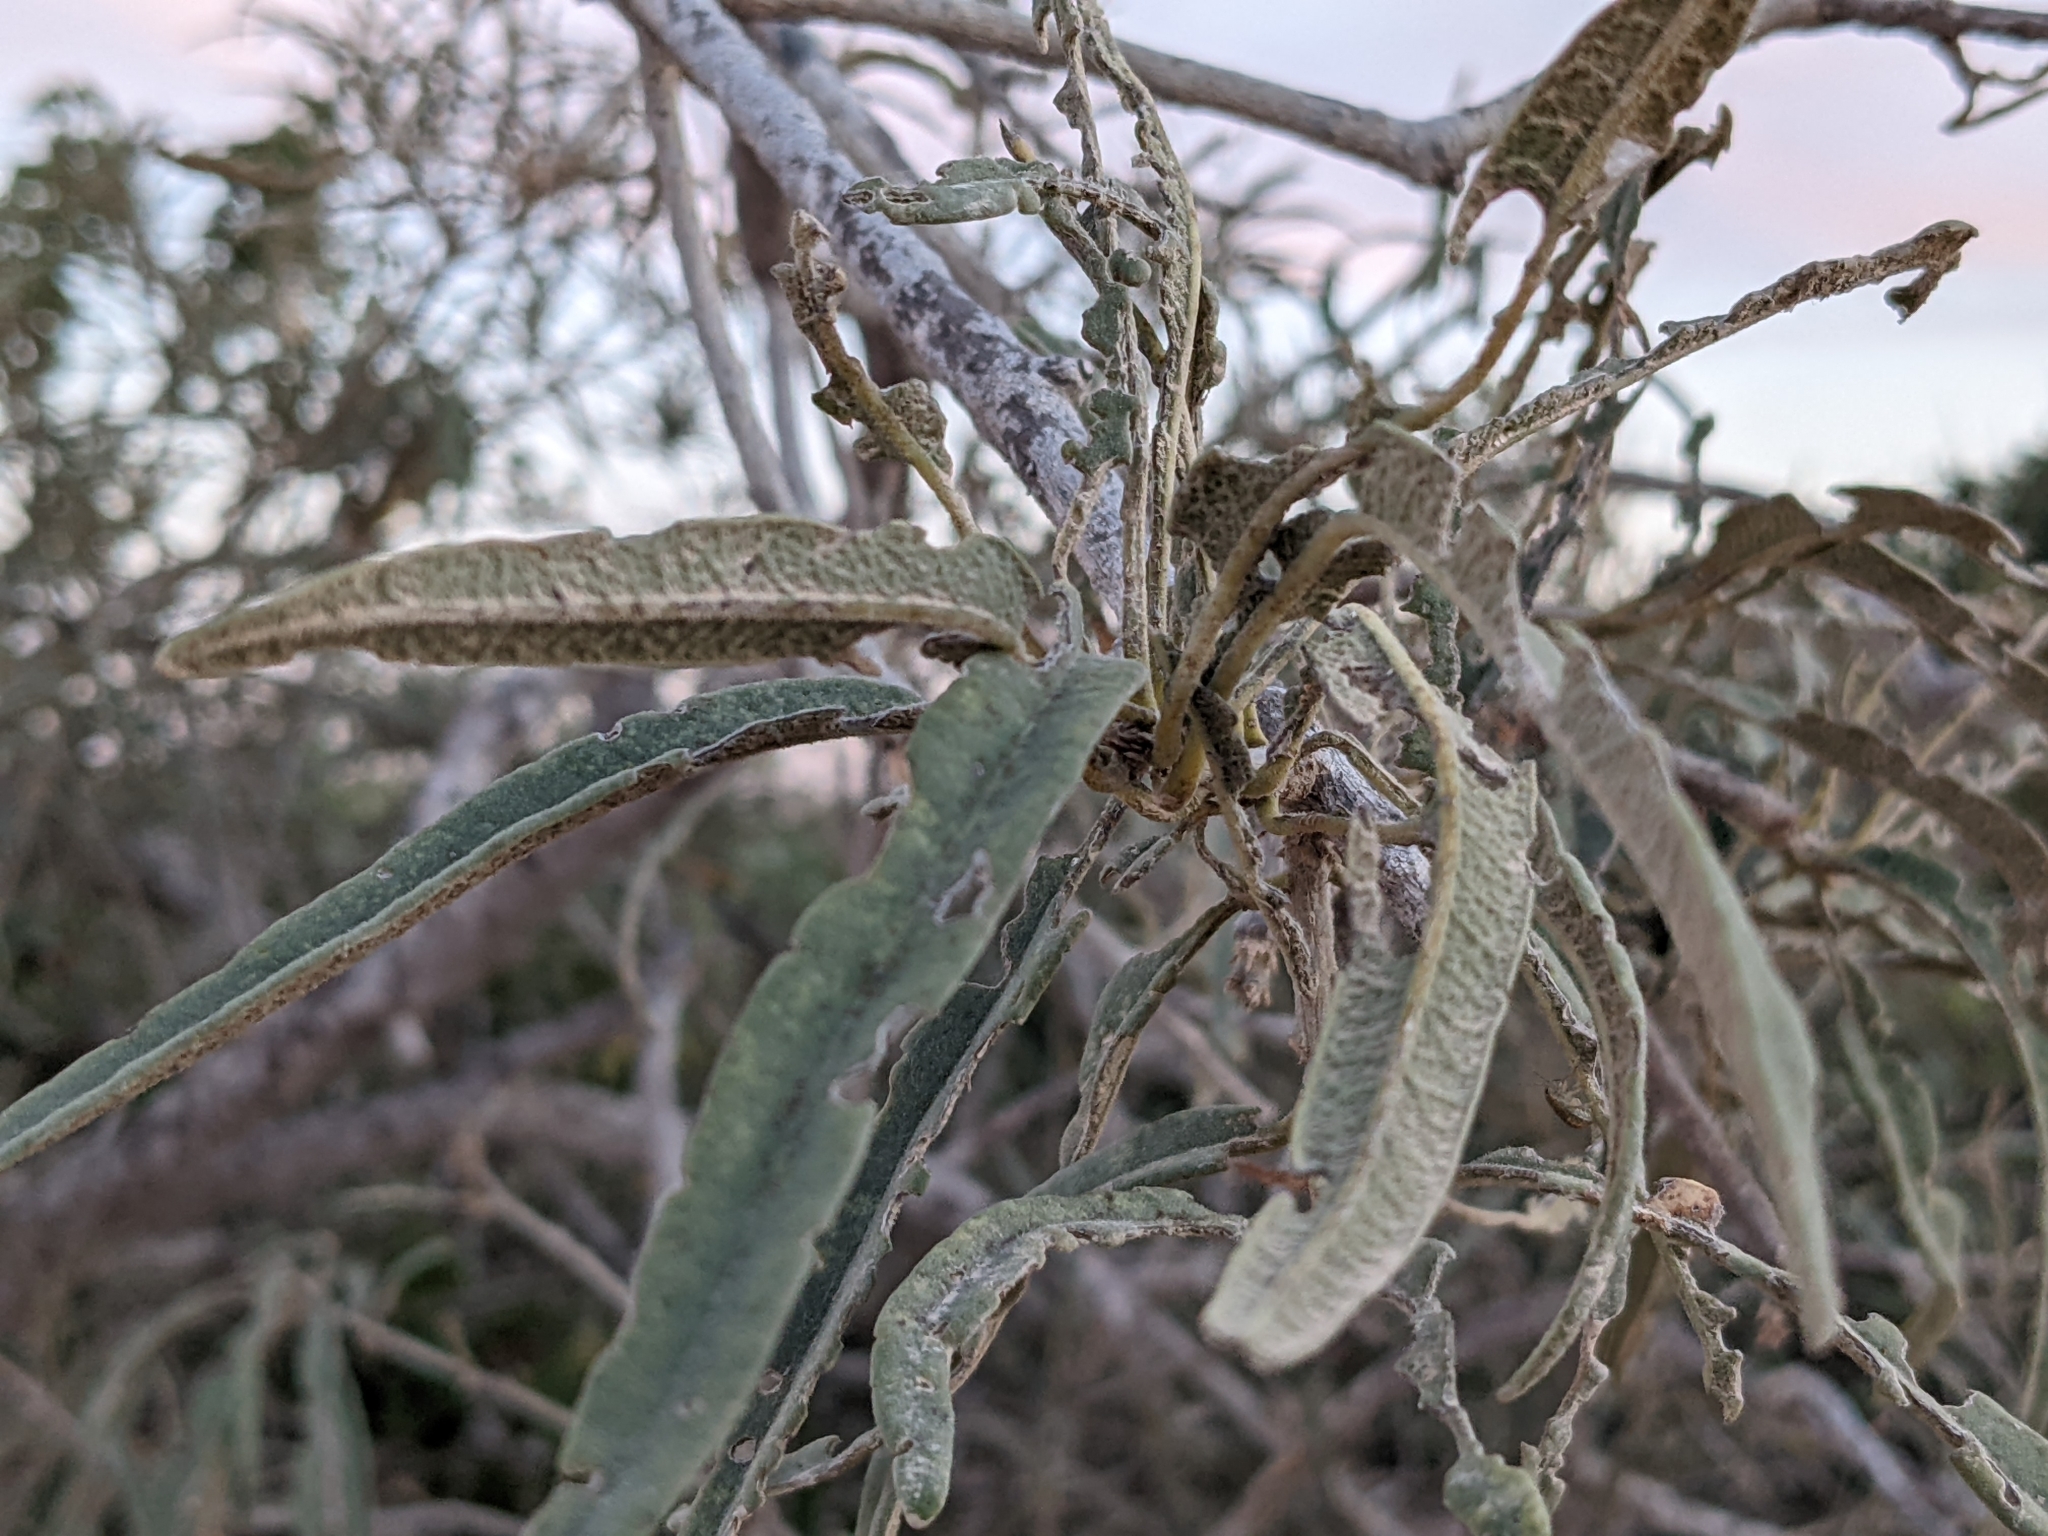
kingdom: Plantae
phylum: Tracheophyta
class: Magnoliopsida
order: Brassicales
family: Stixaceae
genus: Forchhammeria
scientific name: Forchhammeria watsonii
